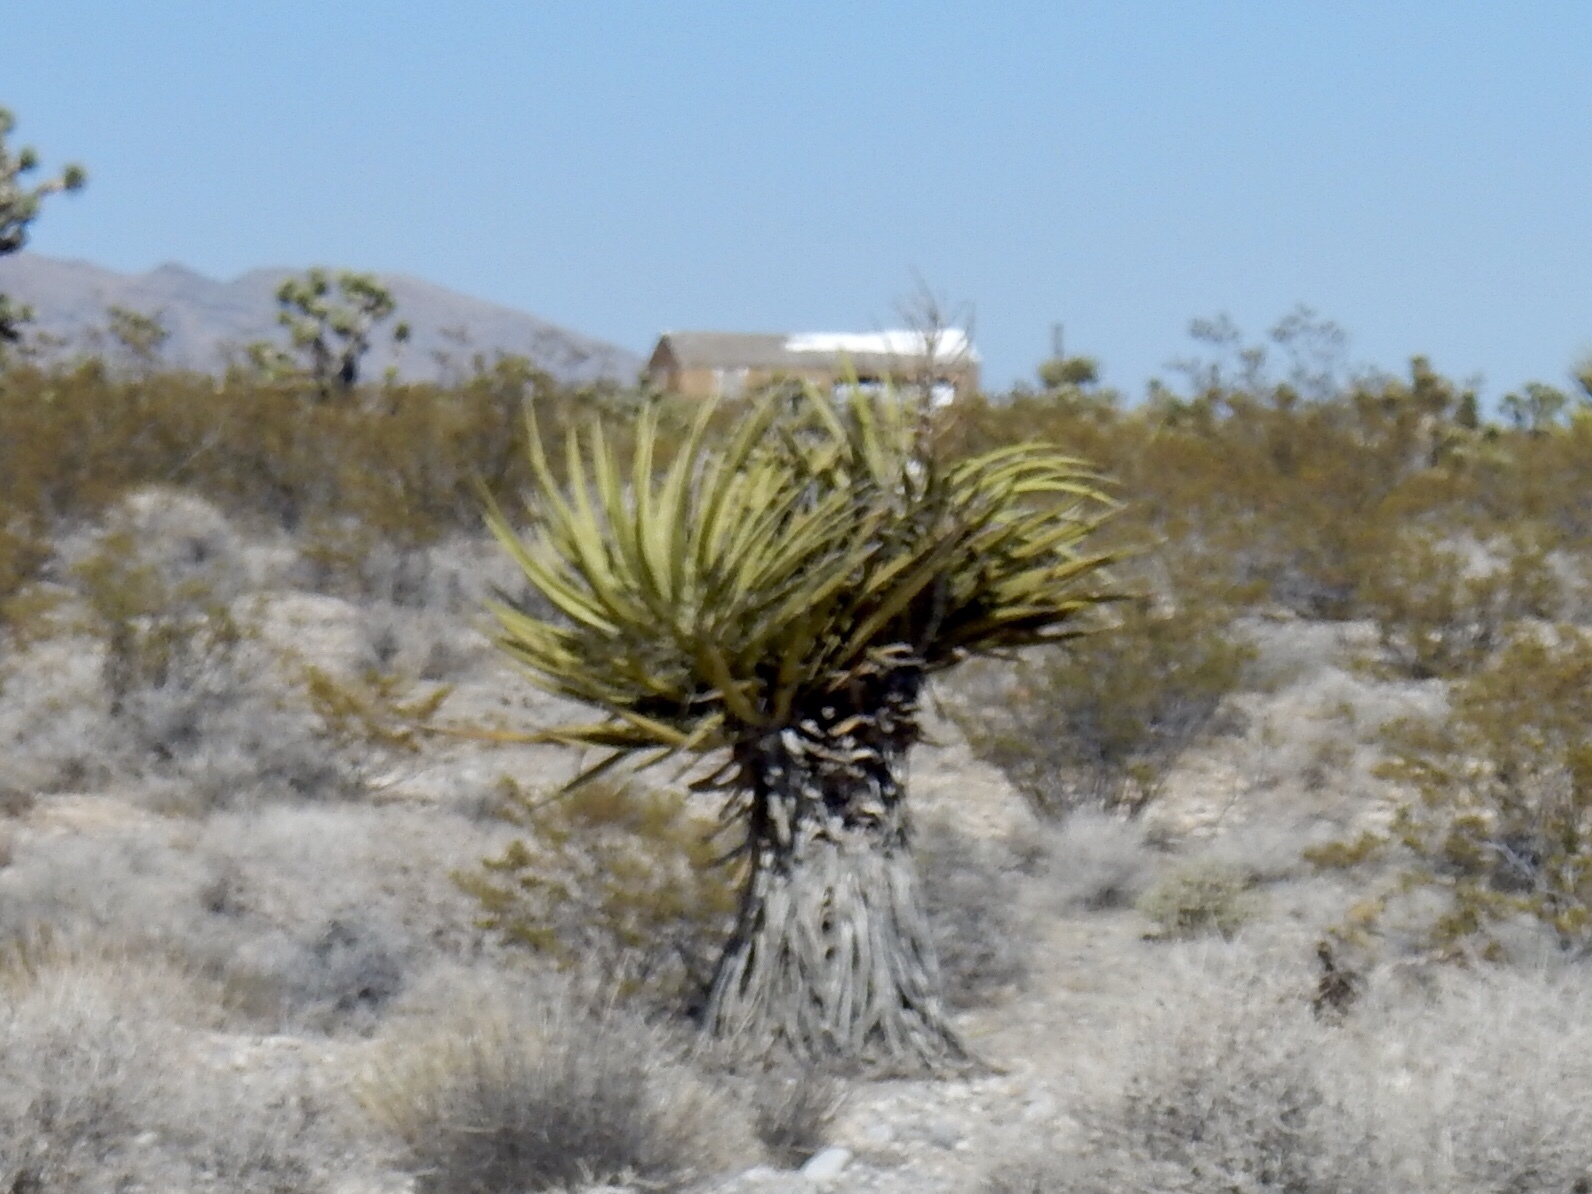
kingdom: Plantae
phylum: Tracheophyta
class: Liliopsida
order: Asparagales
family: Asparagaceae
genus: Yucca
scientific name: Yucca schidigera
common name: Mojave yucca
